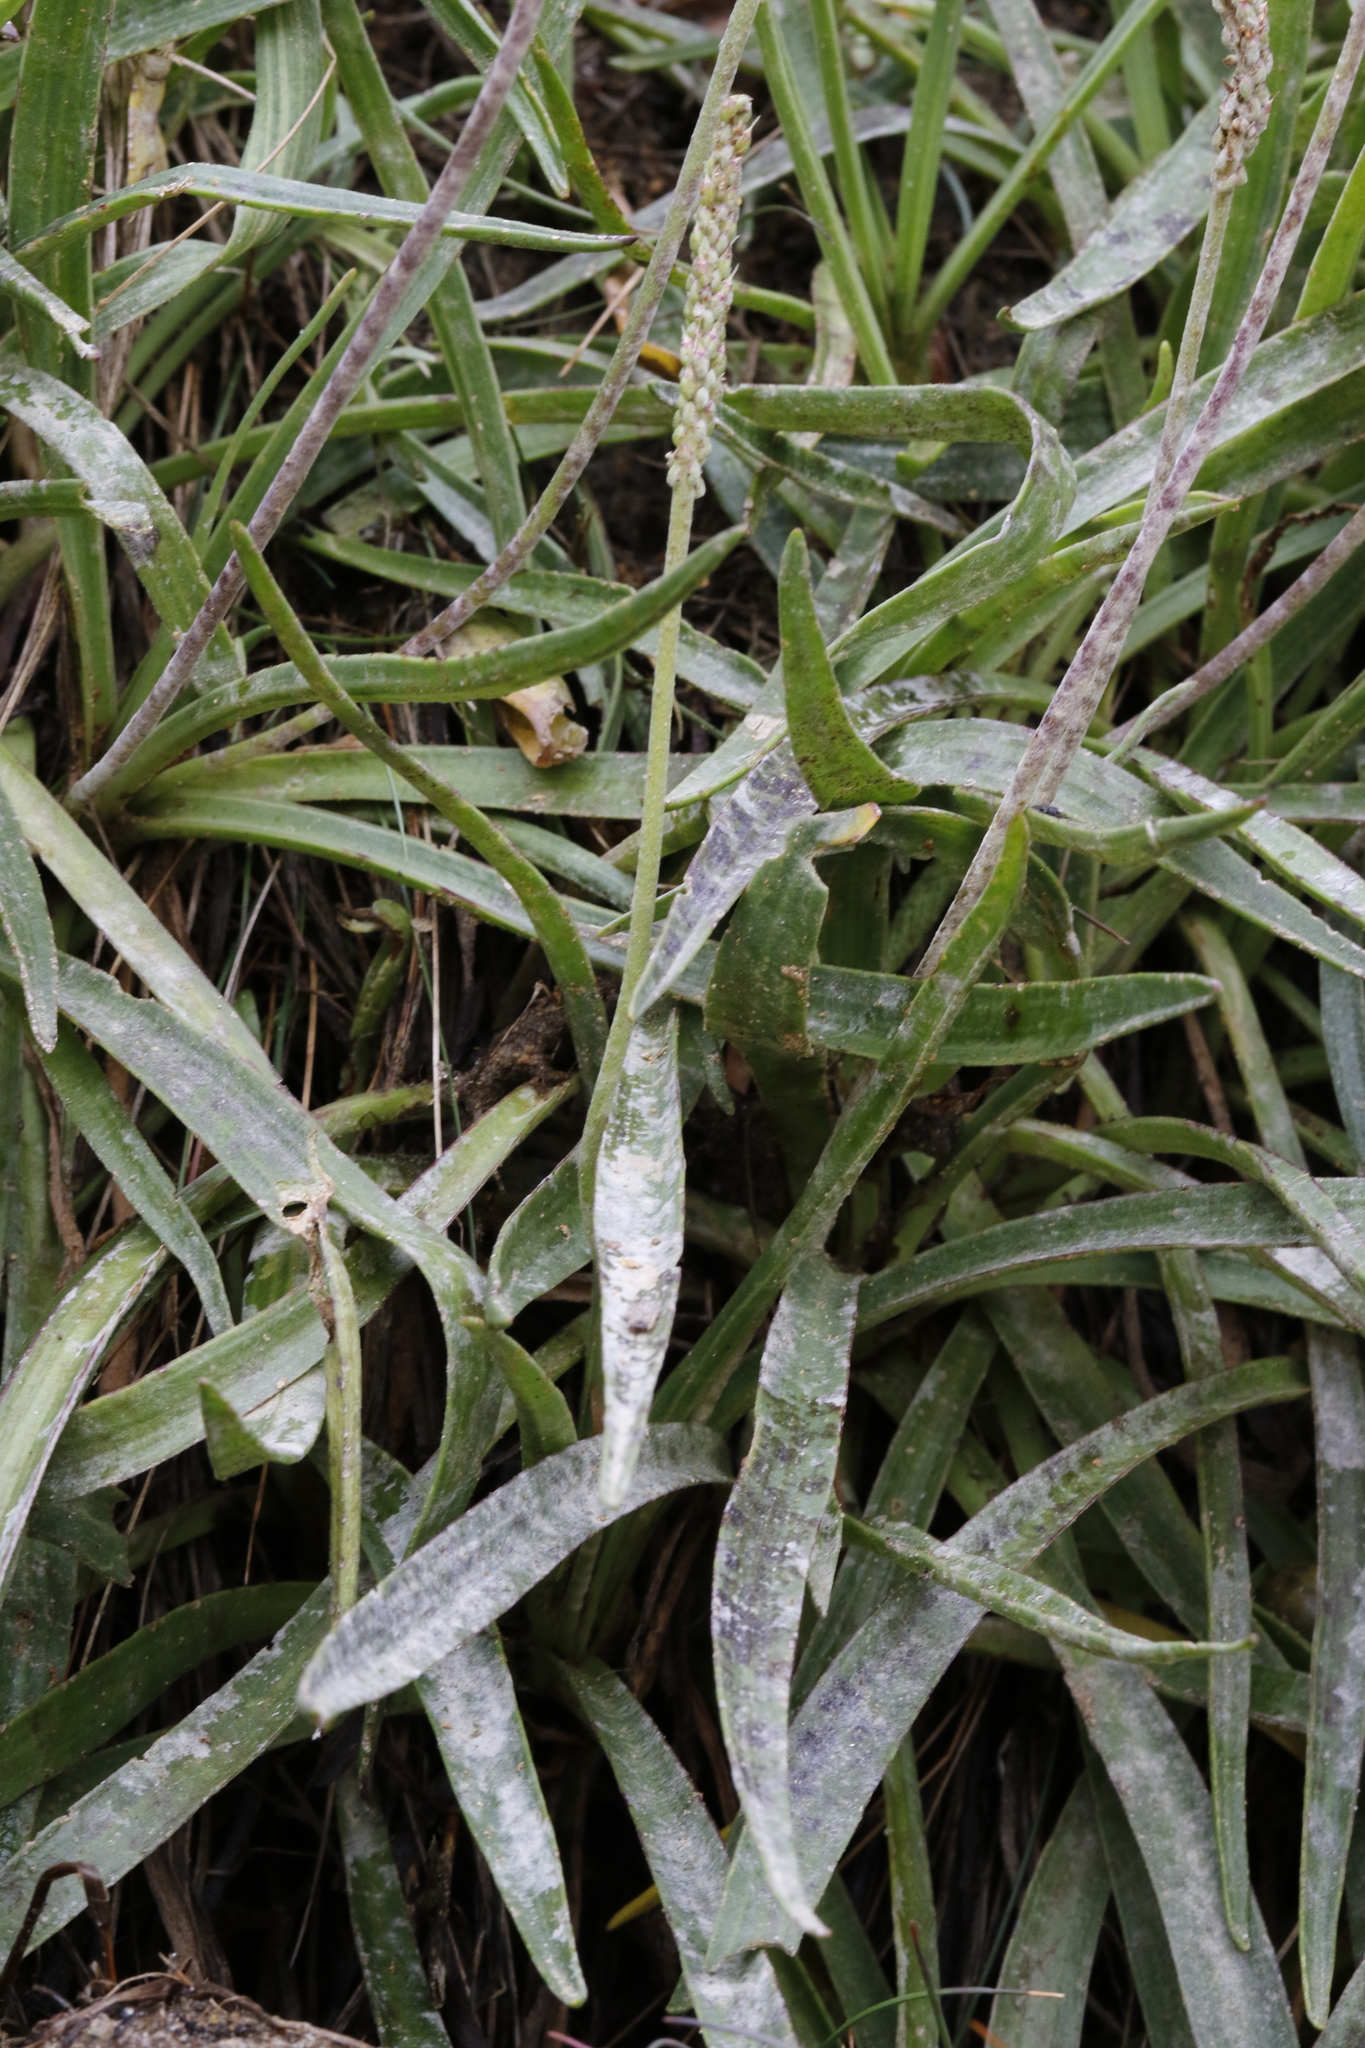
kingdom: Fungi
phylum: Ascomycota
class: Leotiomycetes
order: Helotiales
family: Erysiphaceae
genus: Golovinomyces
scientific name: Golovinomyces sordidus
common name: Plantain mildew
